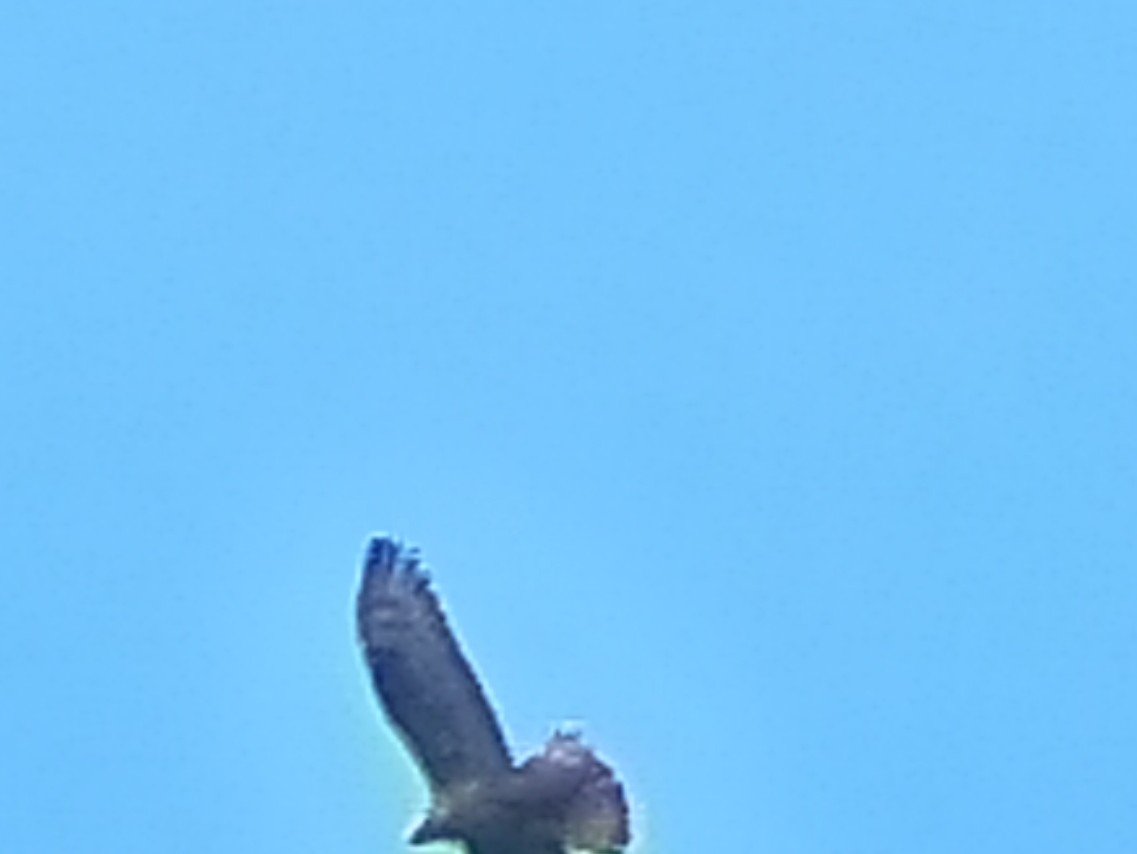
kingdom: Animalia
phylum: Chordata
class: Aves
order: Accipitriformes
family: Accipitridae
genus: Pernis
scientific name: Pernis apivorus
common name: European honey buzzard
